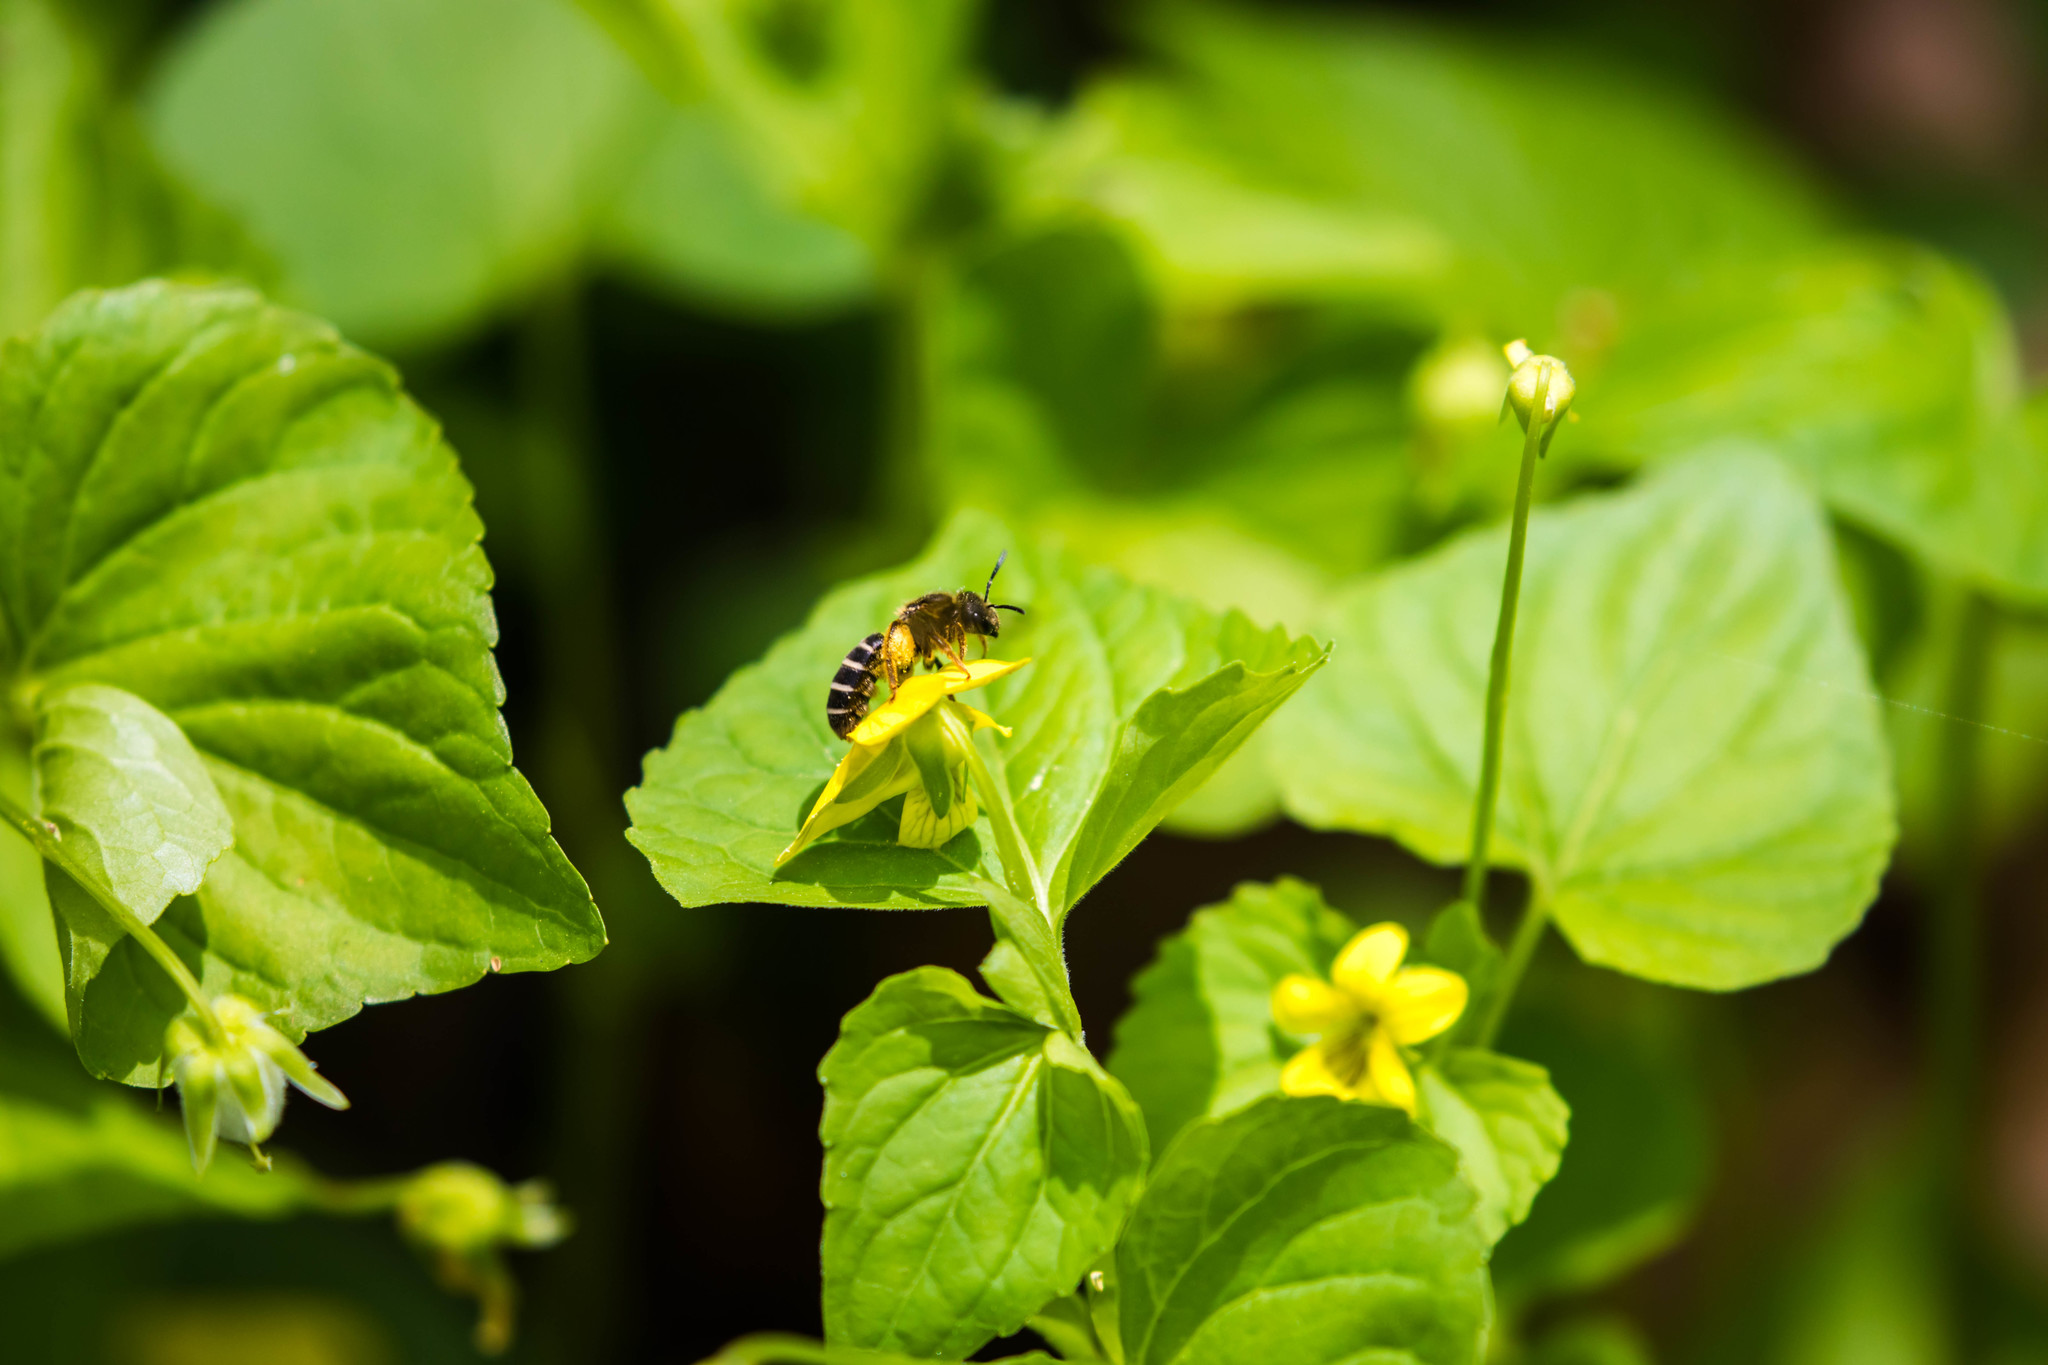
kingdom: Animalia
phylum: Arthropoda
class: Insecta
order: Hymenoptera
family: Halictidae
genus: Halictus
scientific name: Halictus rubicundus
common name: Orange-legged furrow bee
